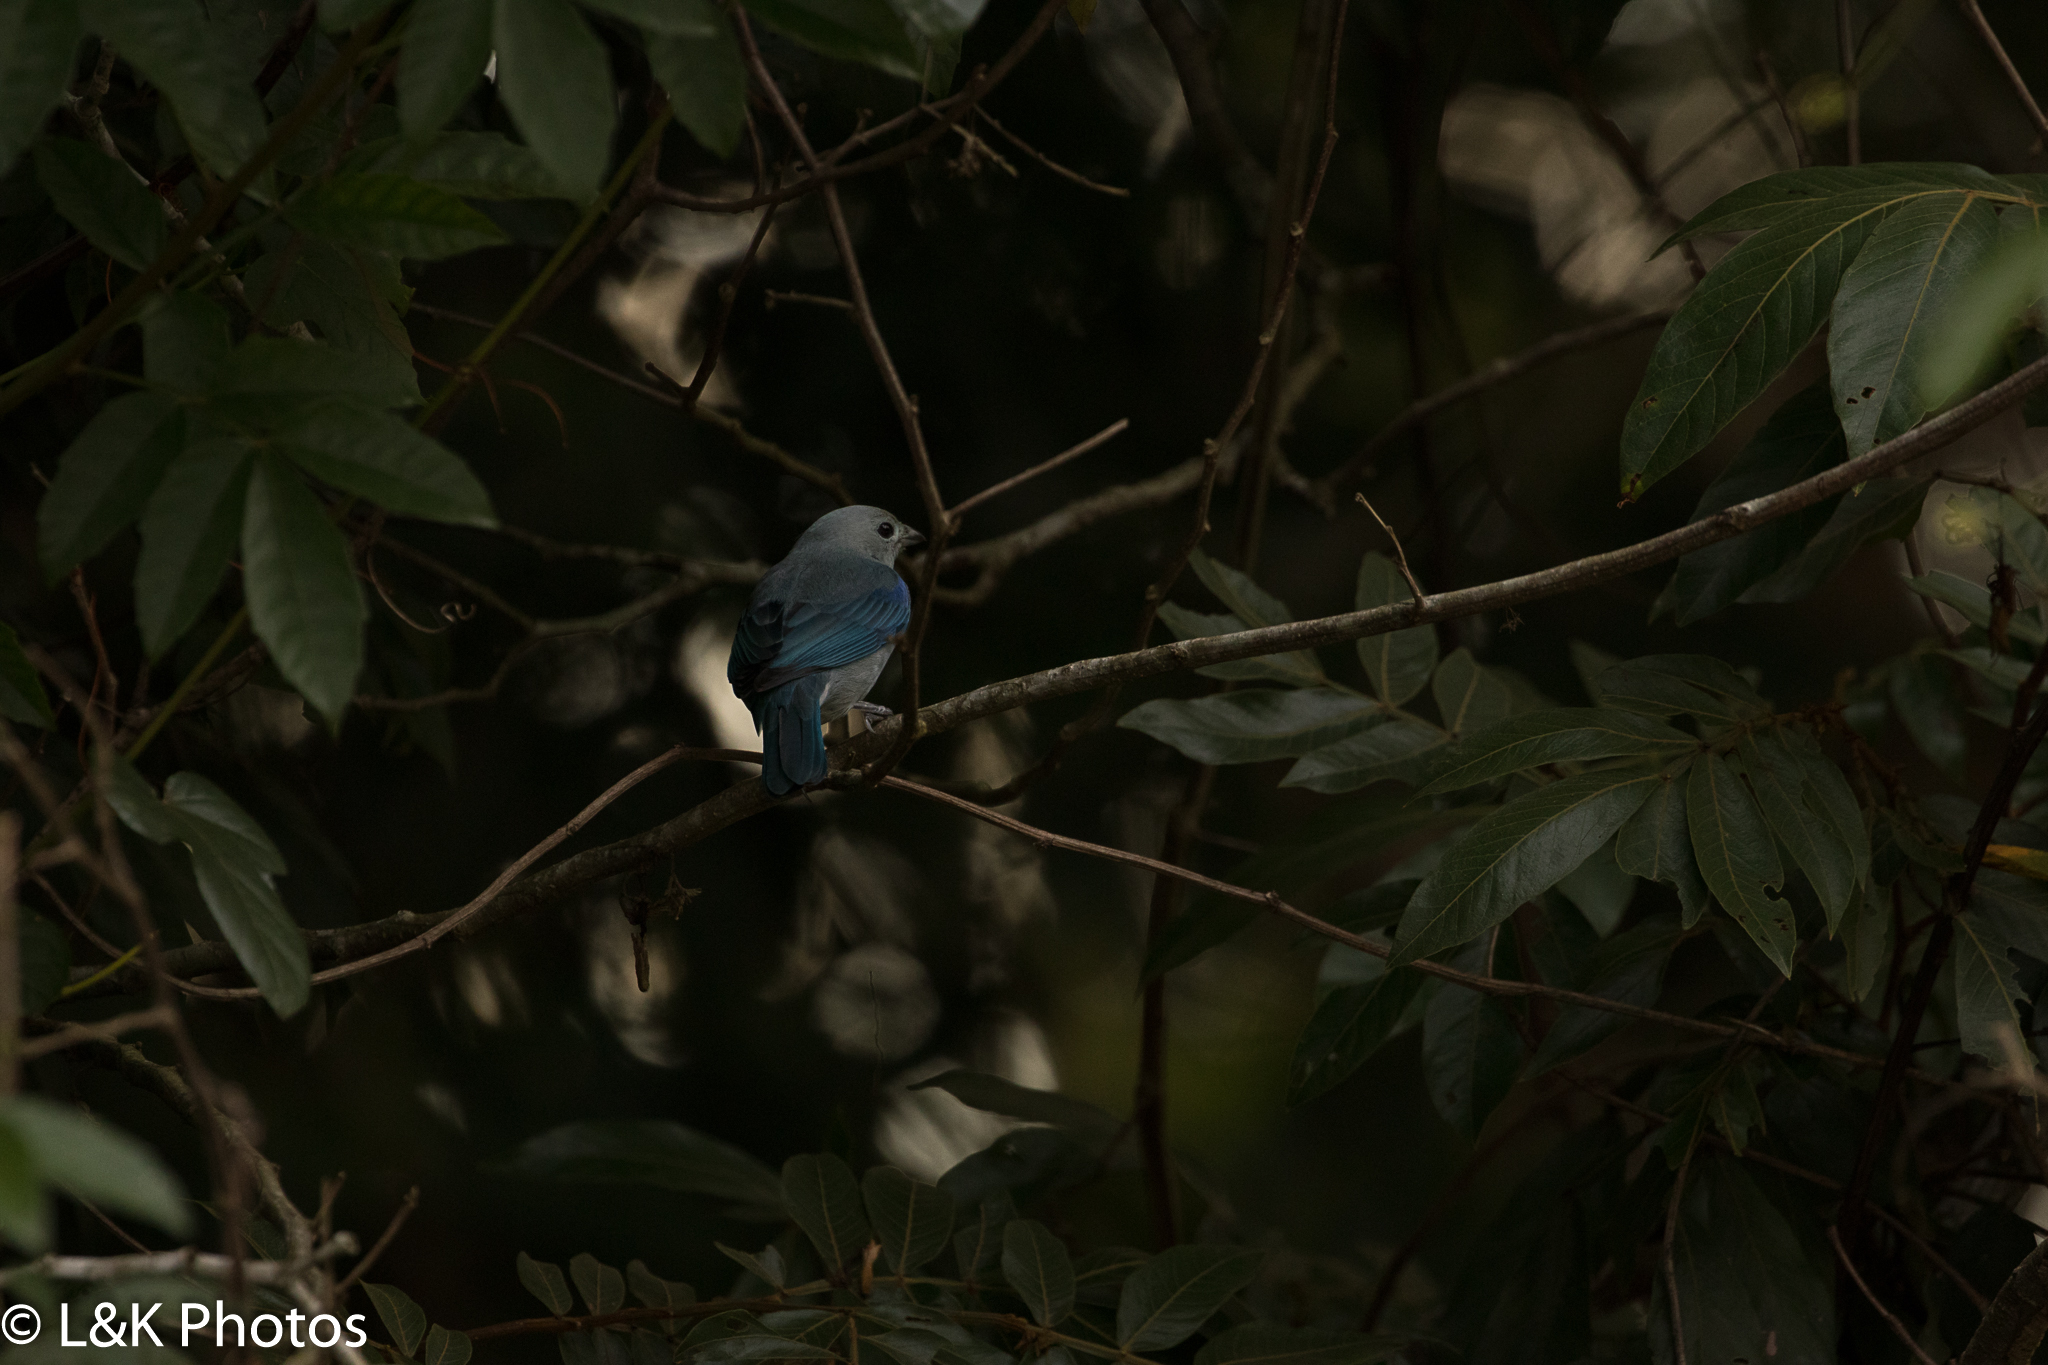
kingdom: Animalia
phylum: Chordata
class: Aves
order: Passeriformes
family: Thraupidae
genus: Thraupis
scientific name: Thraupis episcopus
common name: Blue-grey tanager
